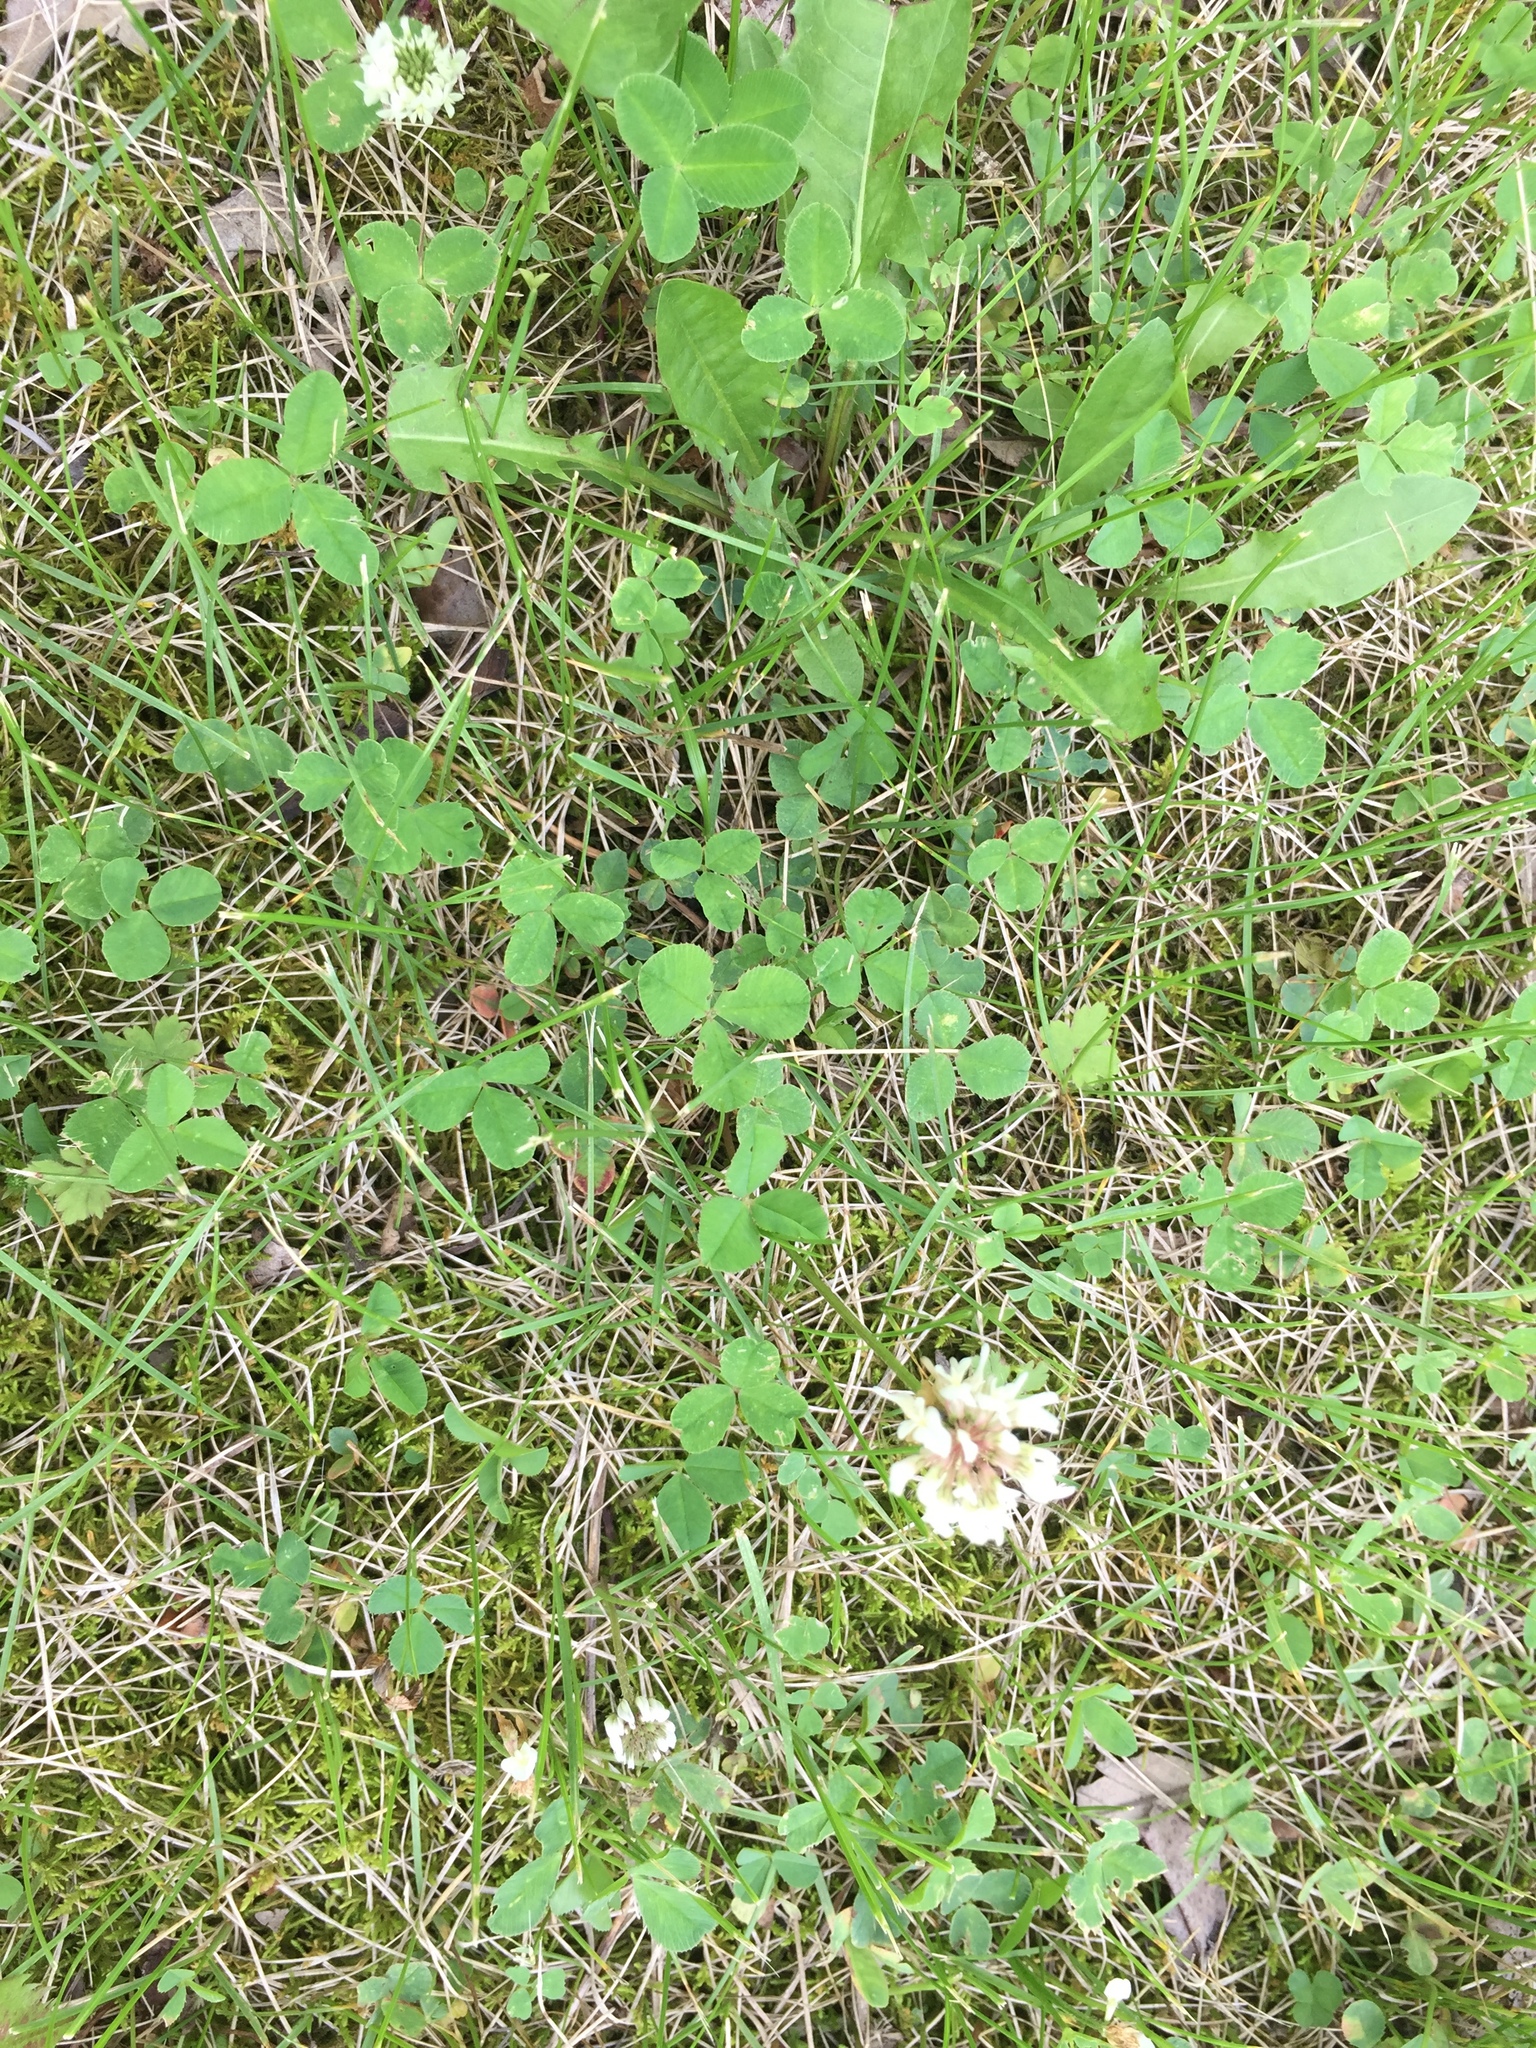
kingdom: Plantae
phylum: Tracheophyta
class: Magnoliopsida
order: Fabales
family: Fabaceae
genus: Trifolium
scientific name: Trifolium repens
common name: White clover
